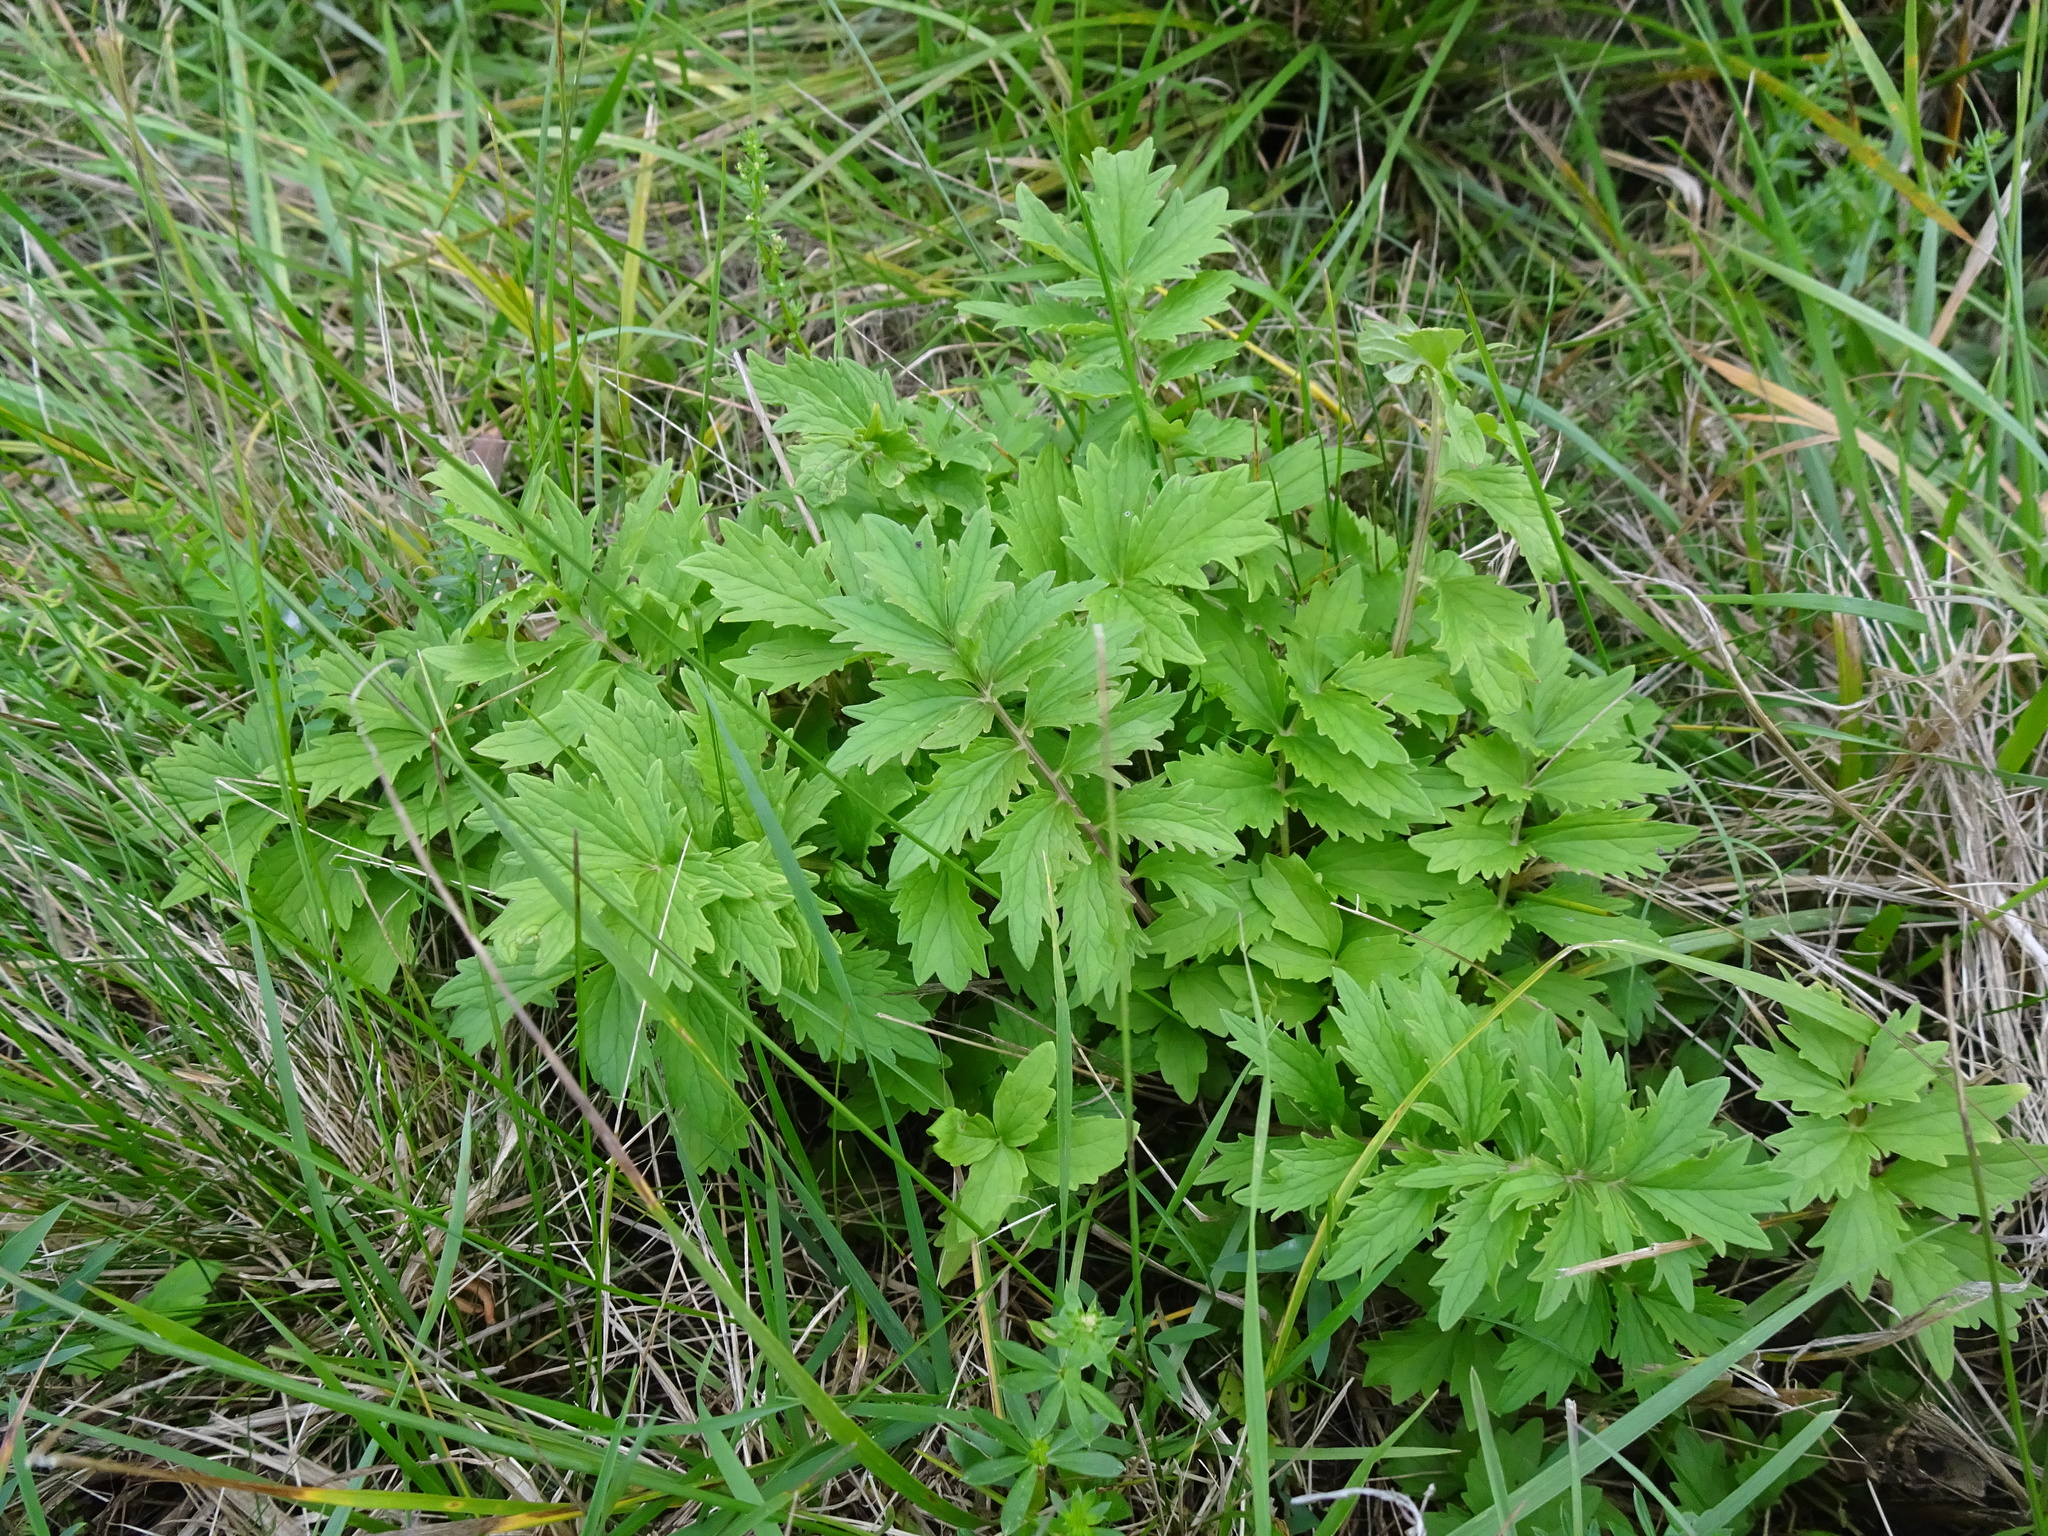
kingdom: Plantae
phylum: Tracheophyta
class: Magnoliopsida
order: Dipsacales
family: Caprifoliaceae
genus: Valeriana
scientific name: Valeriana officinalis
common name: Common valerian
